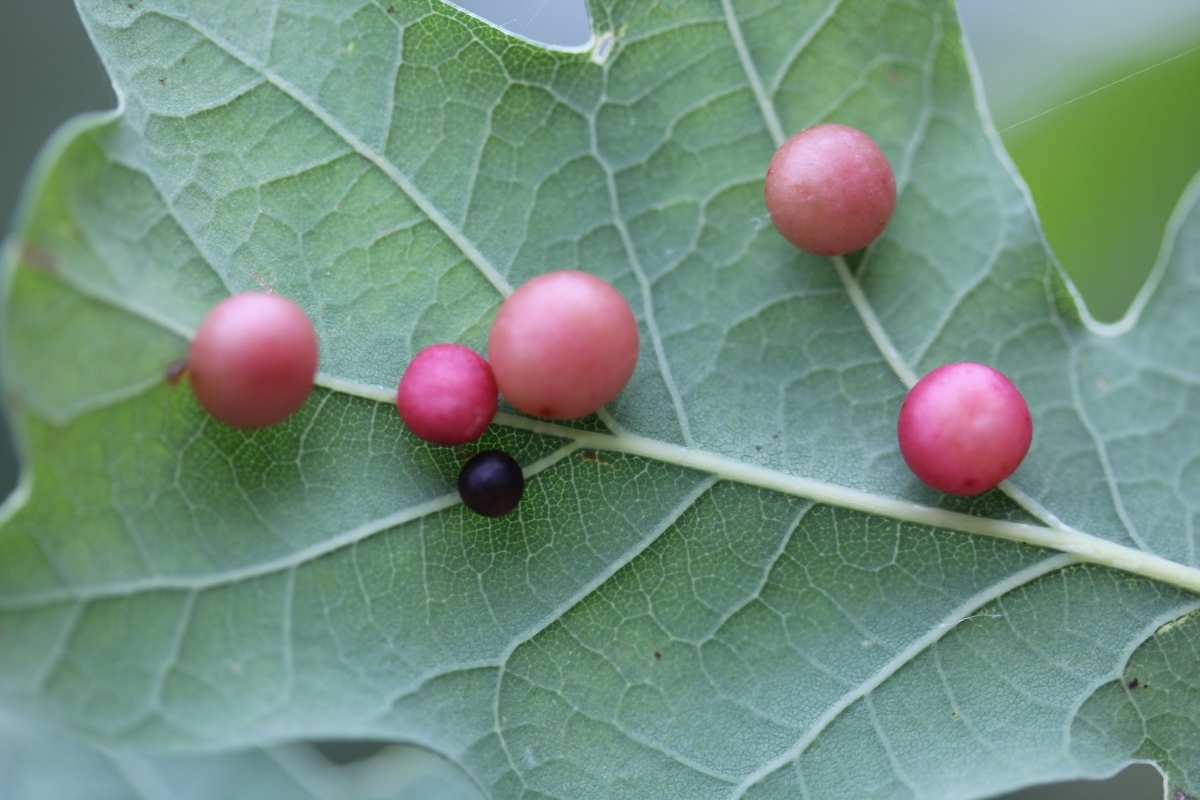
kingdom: Animalia
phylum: Arthropoda
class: Insecta
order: Hymenoptera
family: Cynipidae
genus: Cynips
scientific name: Cynips divisa
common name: Red currant gall
